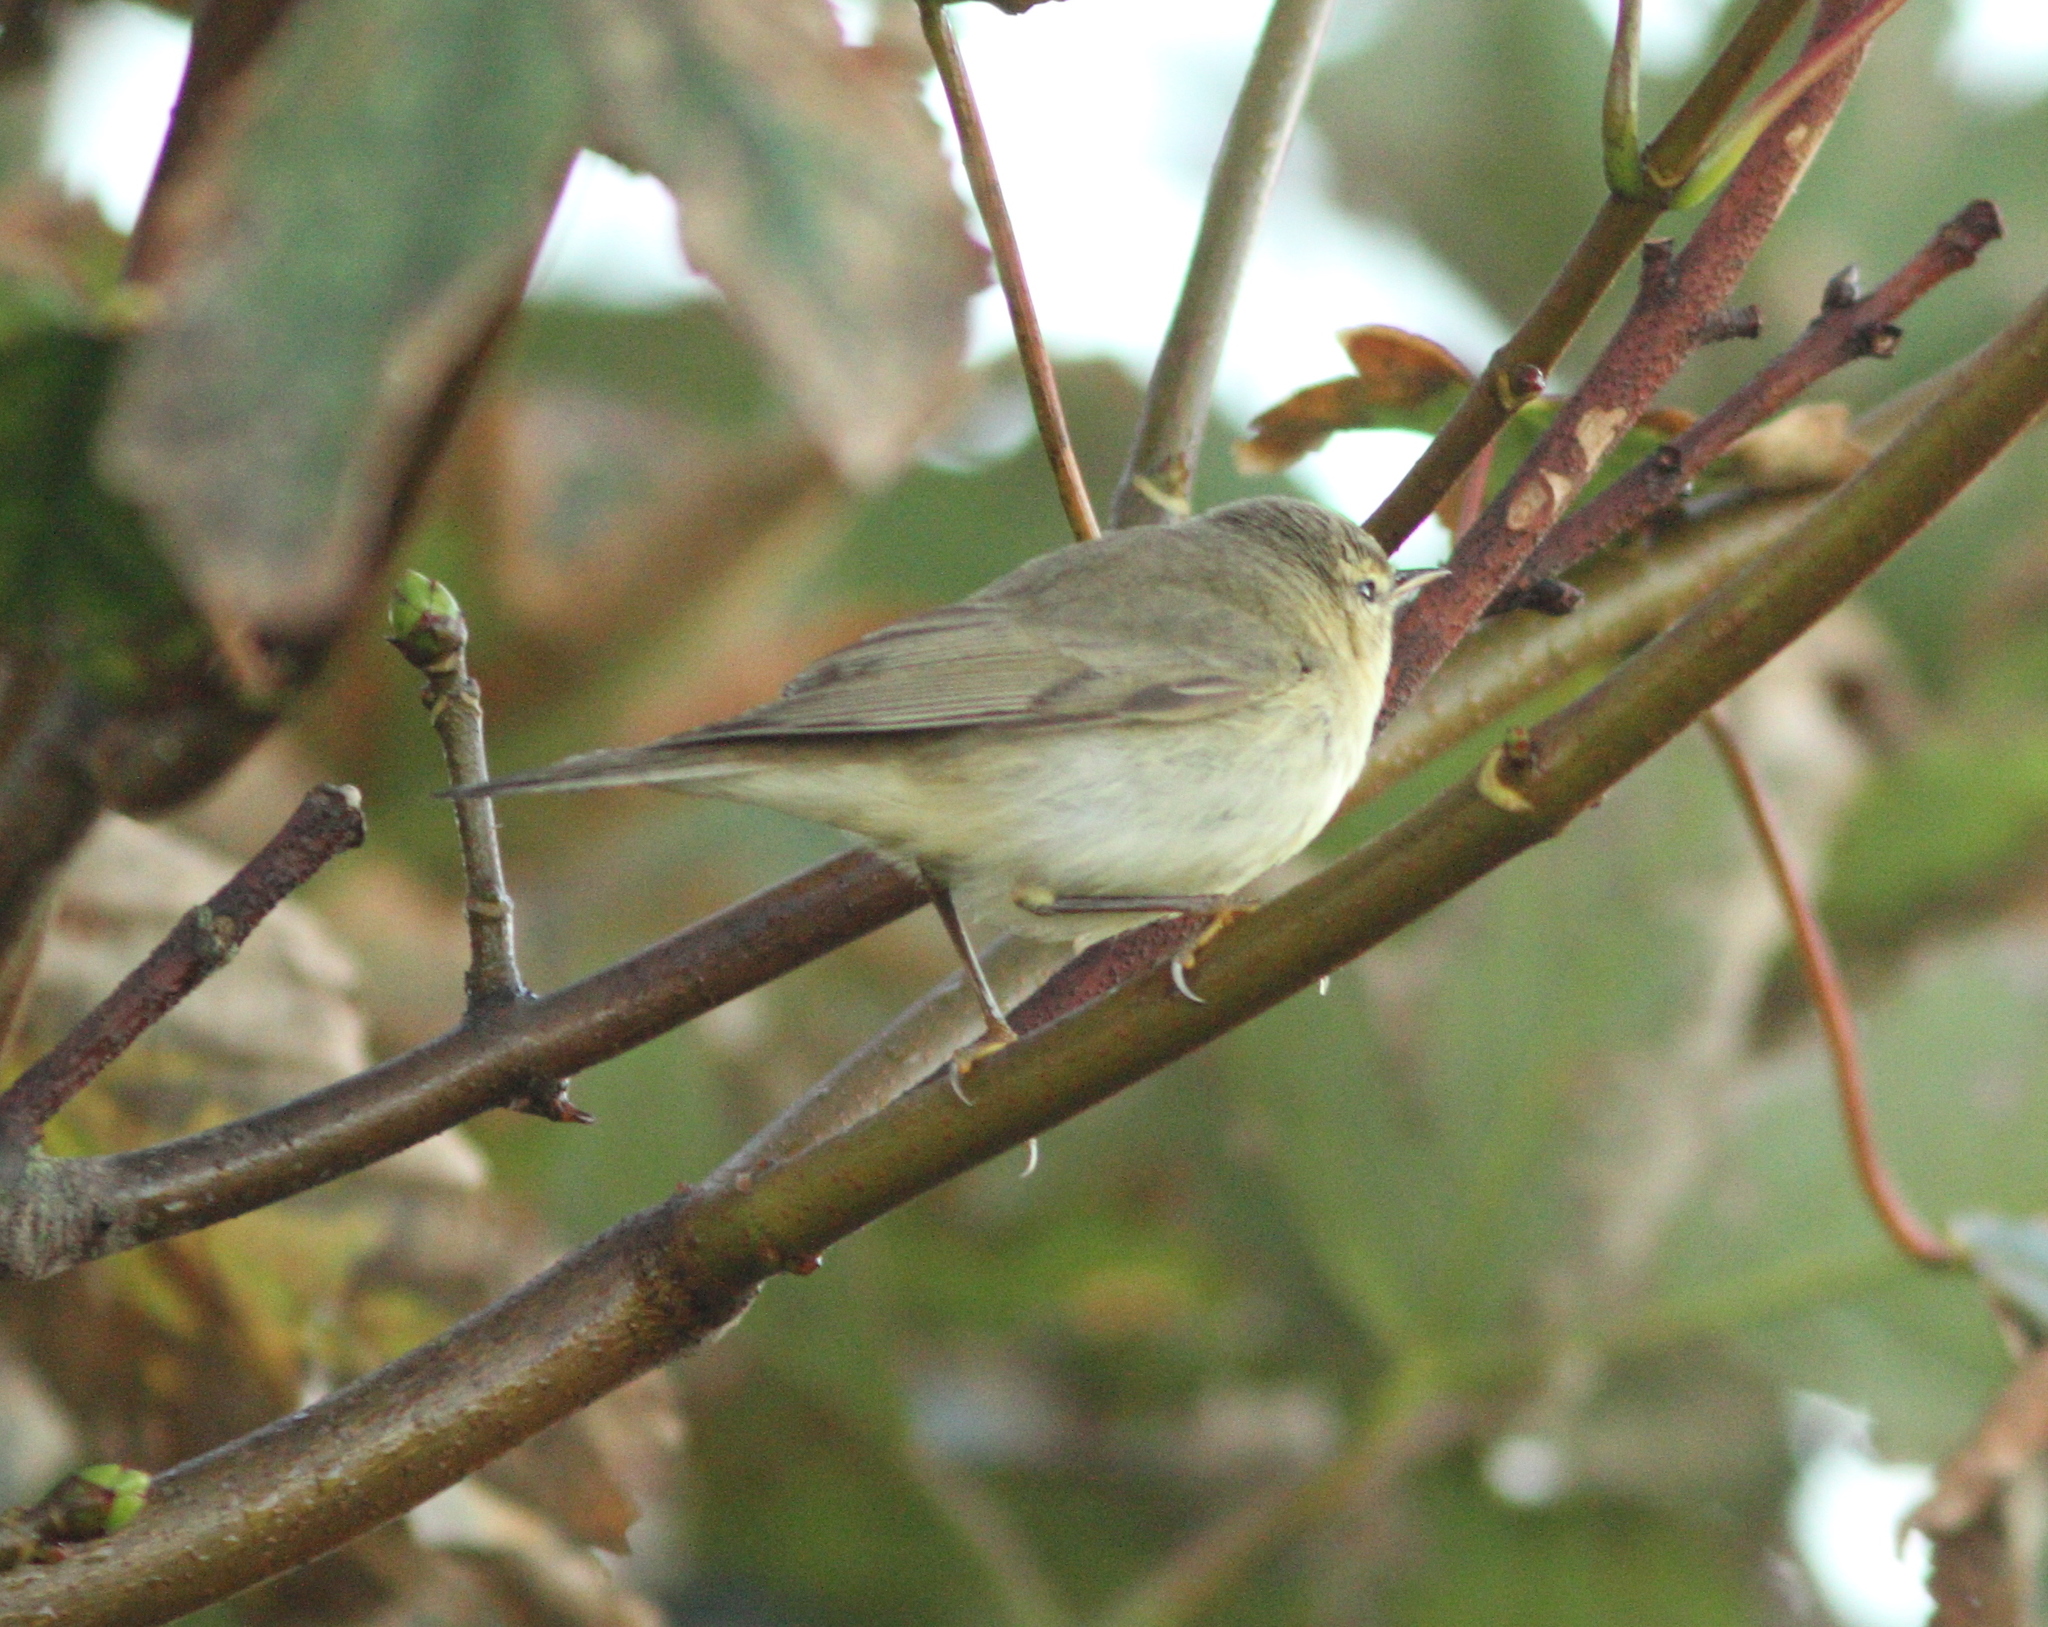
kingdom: Animalia
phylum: Chordata
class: Aves
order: Passeriformes
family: Phylloscopidae
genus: Phylloscopus
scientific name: Phylloscopus trochilus
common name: Willow warbler
